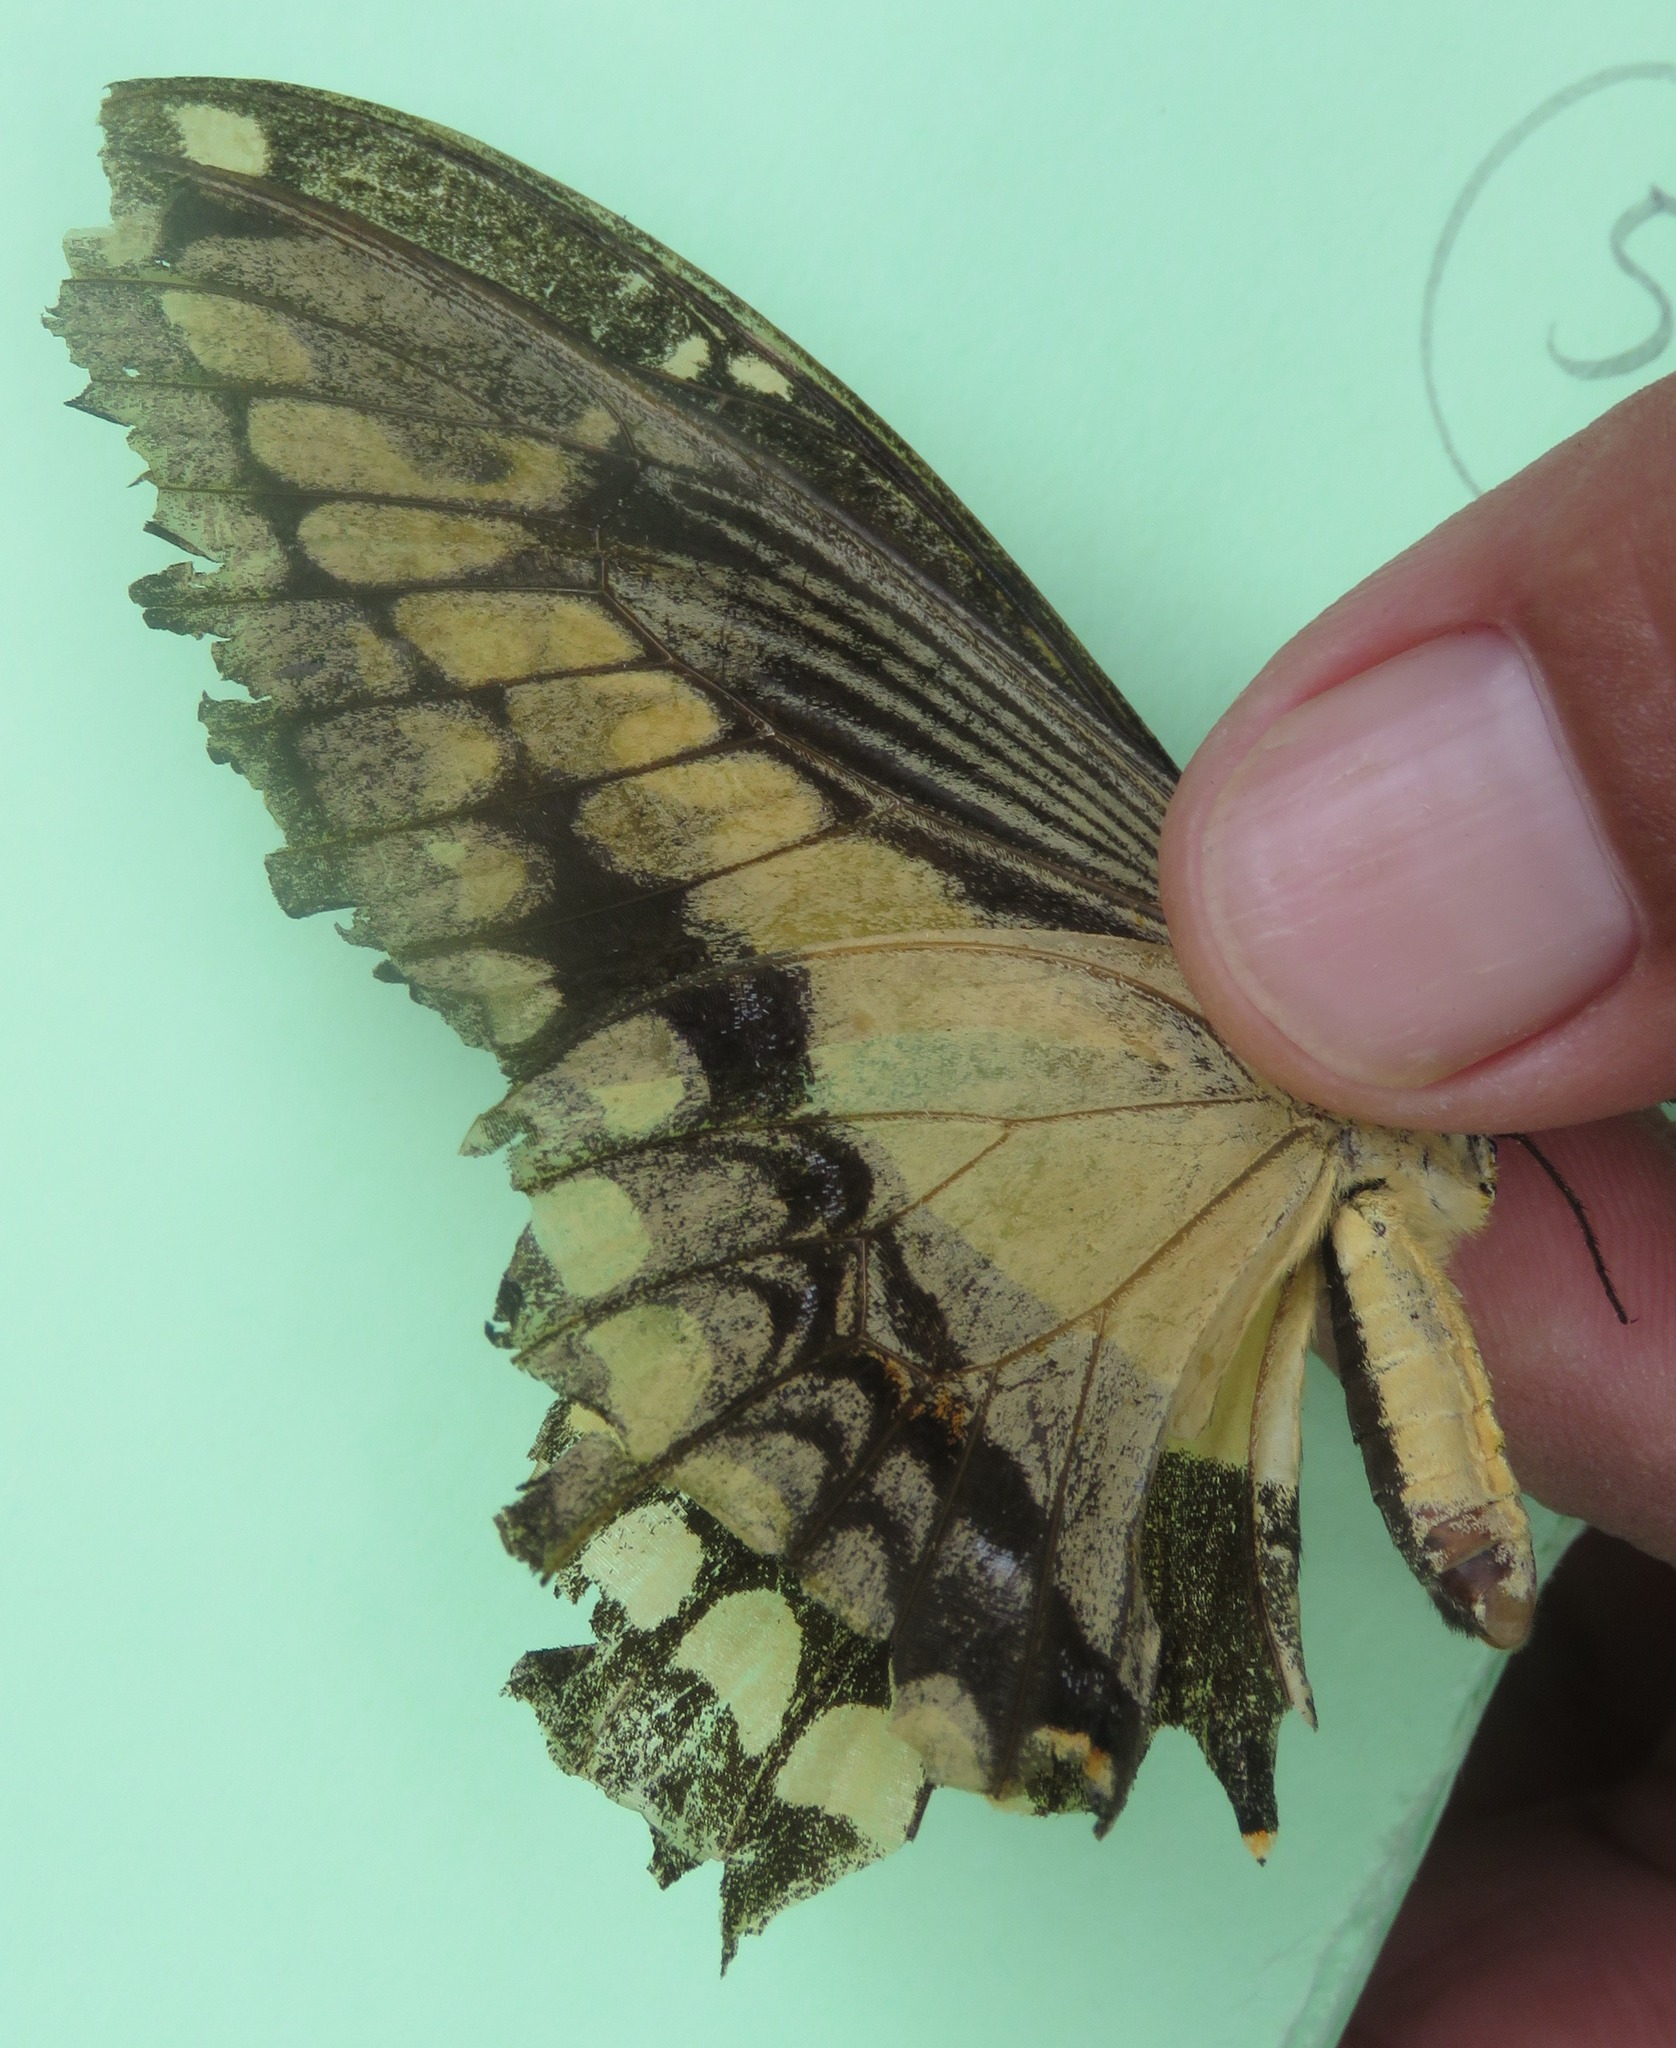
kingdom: Animalia
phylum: Arthropoda
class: Insecta
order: Lepidoptera
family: Papilionidae
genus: Papilio
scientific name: Papilio thoas
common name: King swallowtail
